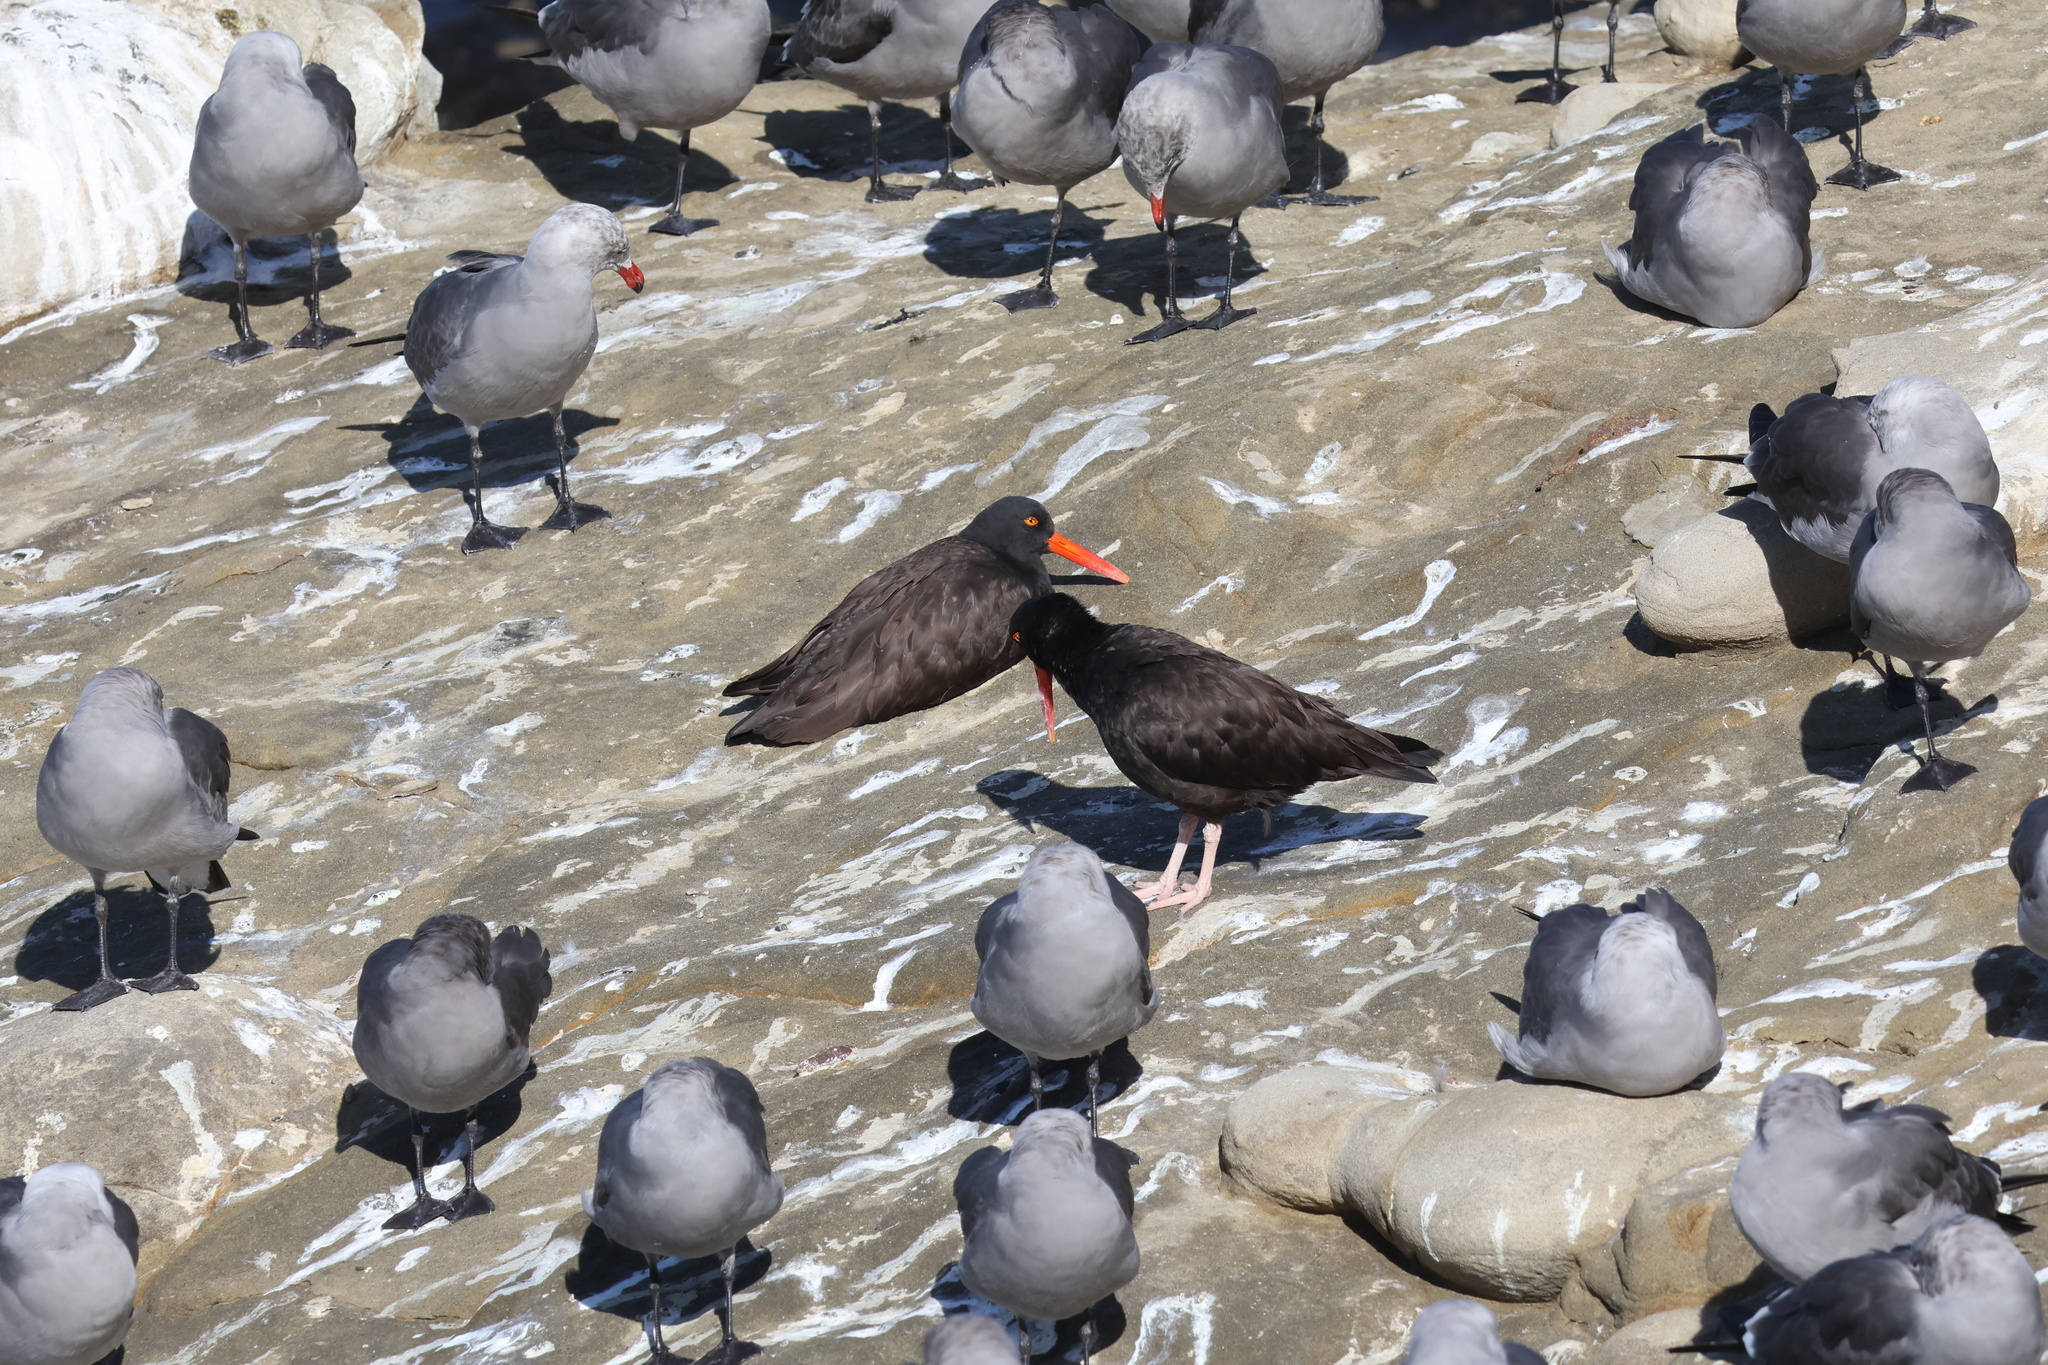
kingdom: Animalia
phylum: Chordata
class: Aves
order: Charadriiformes
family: Haematopodidae
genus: Haematopus
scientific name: Haematopus bachmani
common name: Black oystercatcher
